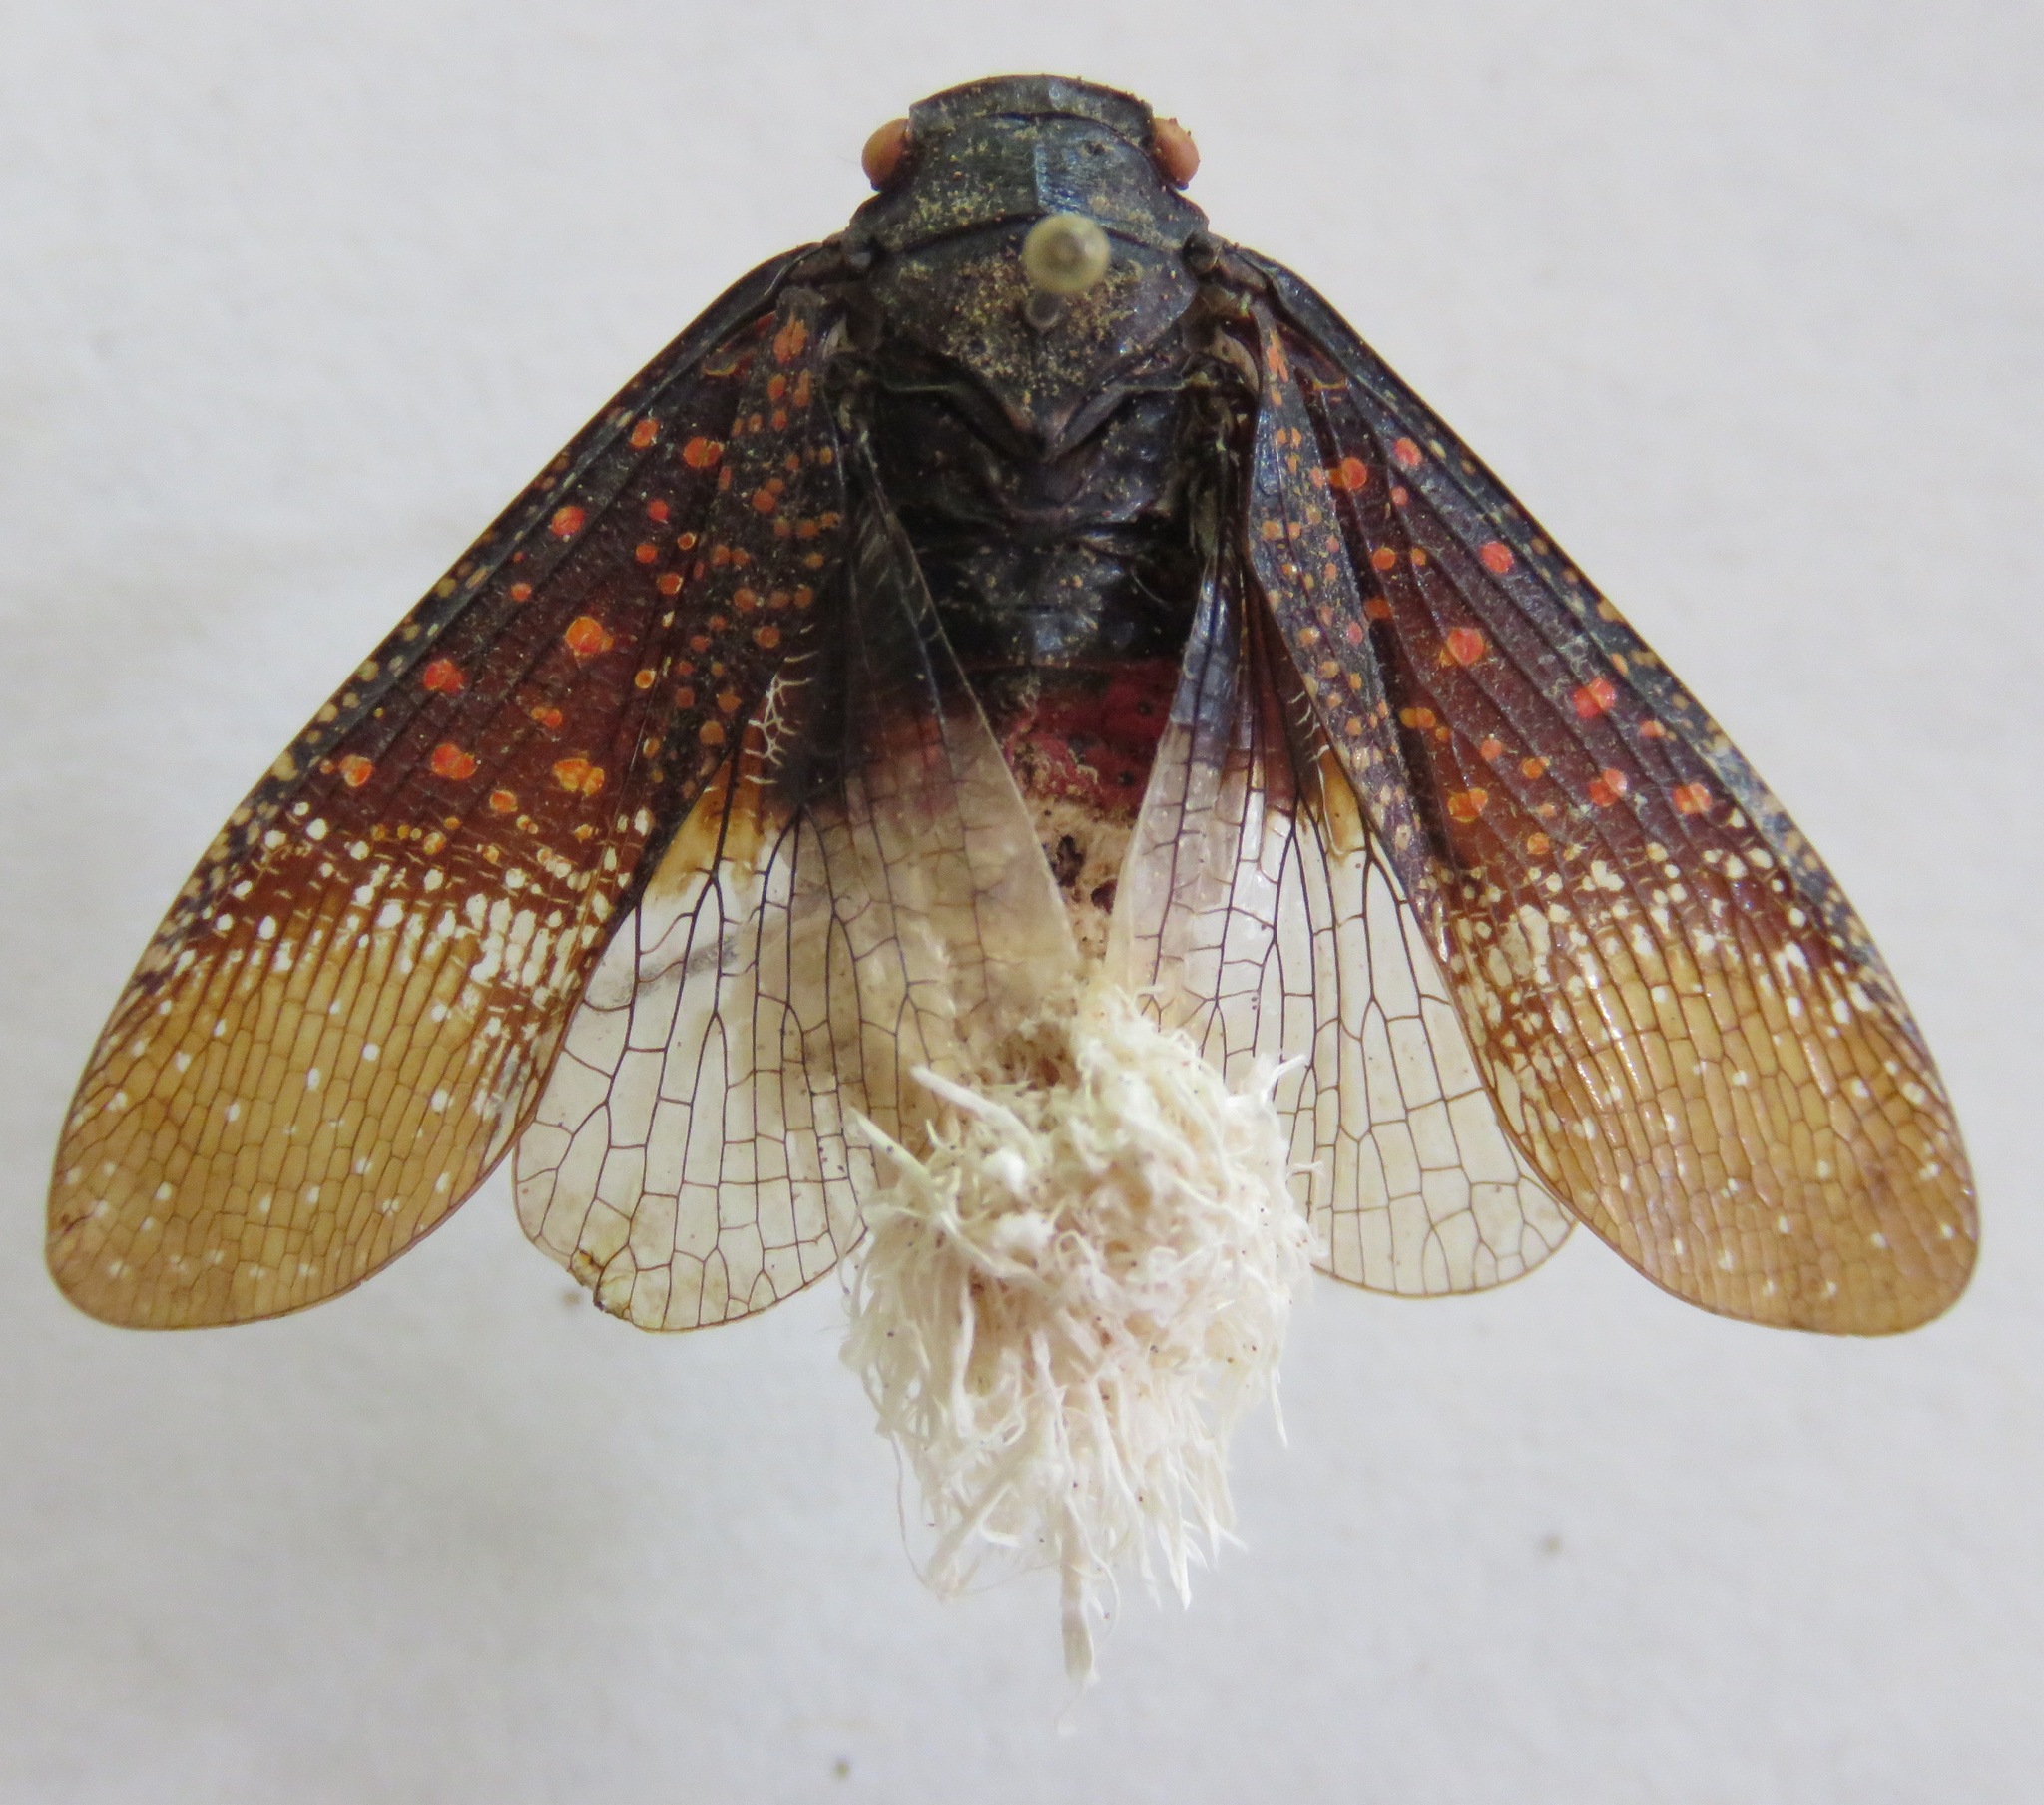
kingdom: Animalia
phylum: Arthropoda
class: Insecta
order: Hemiptera
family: Fulgoridae
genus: Alaruasa
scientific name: Alaruasa
